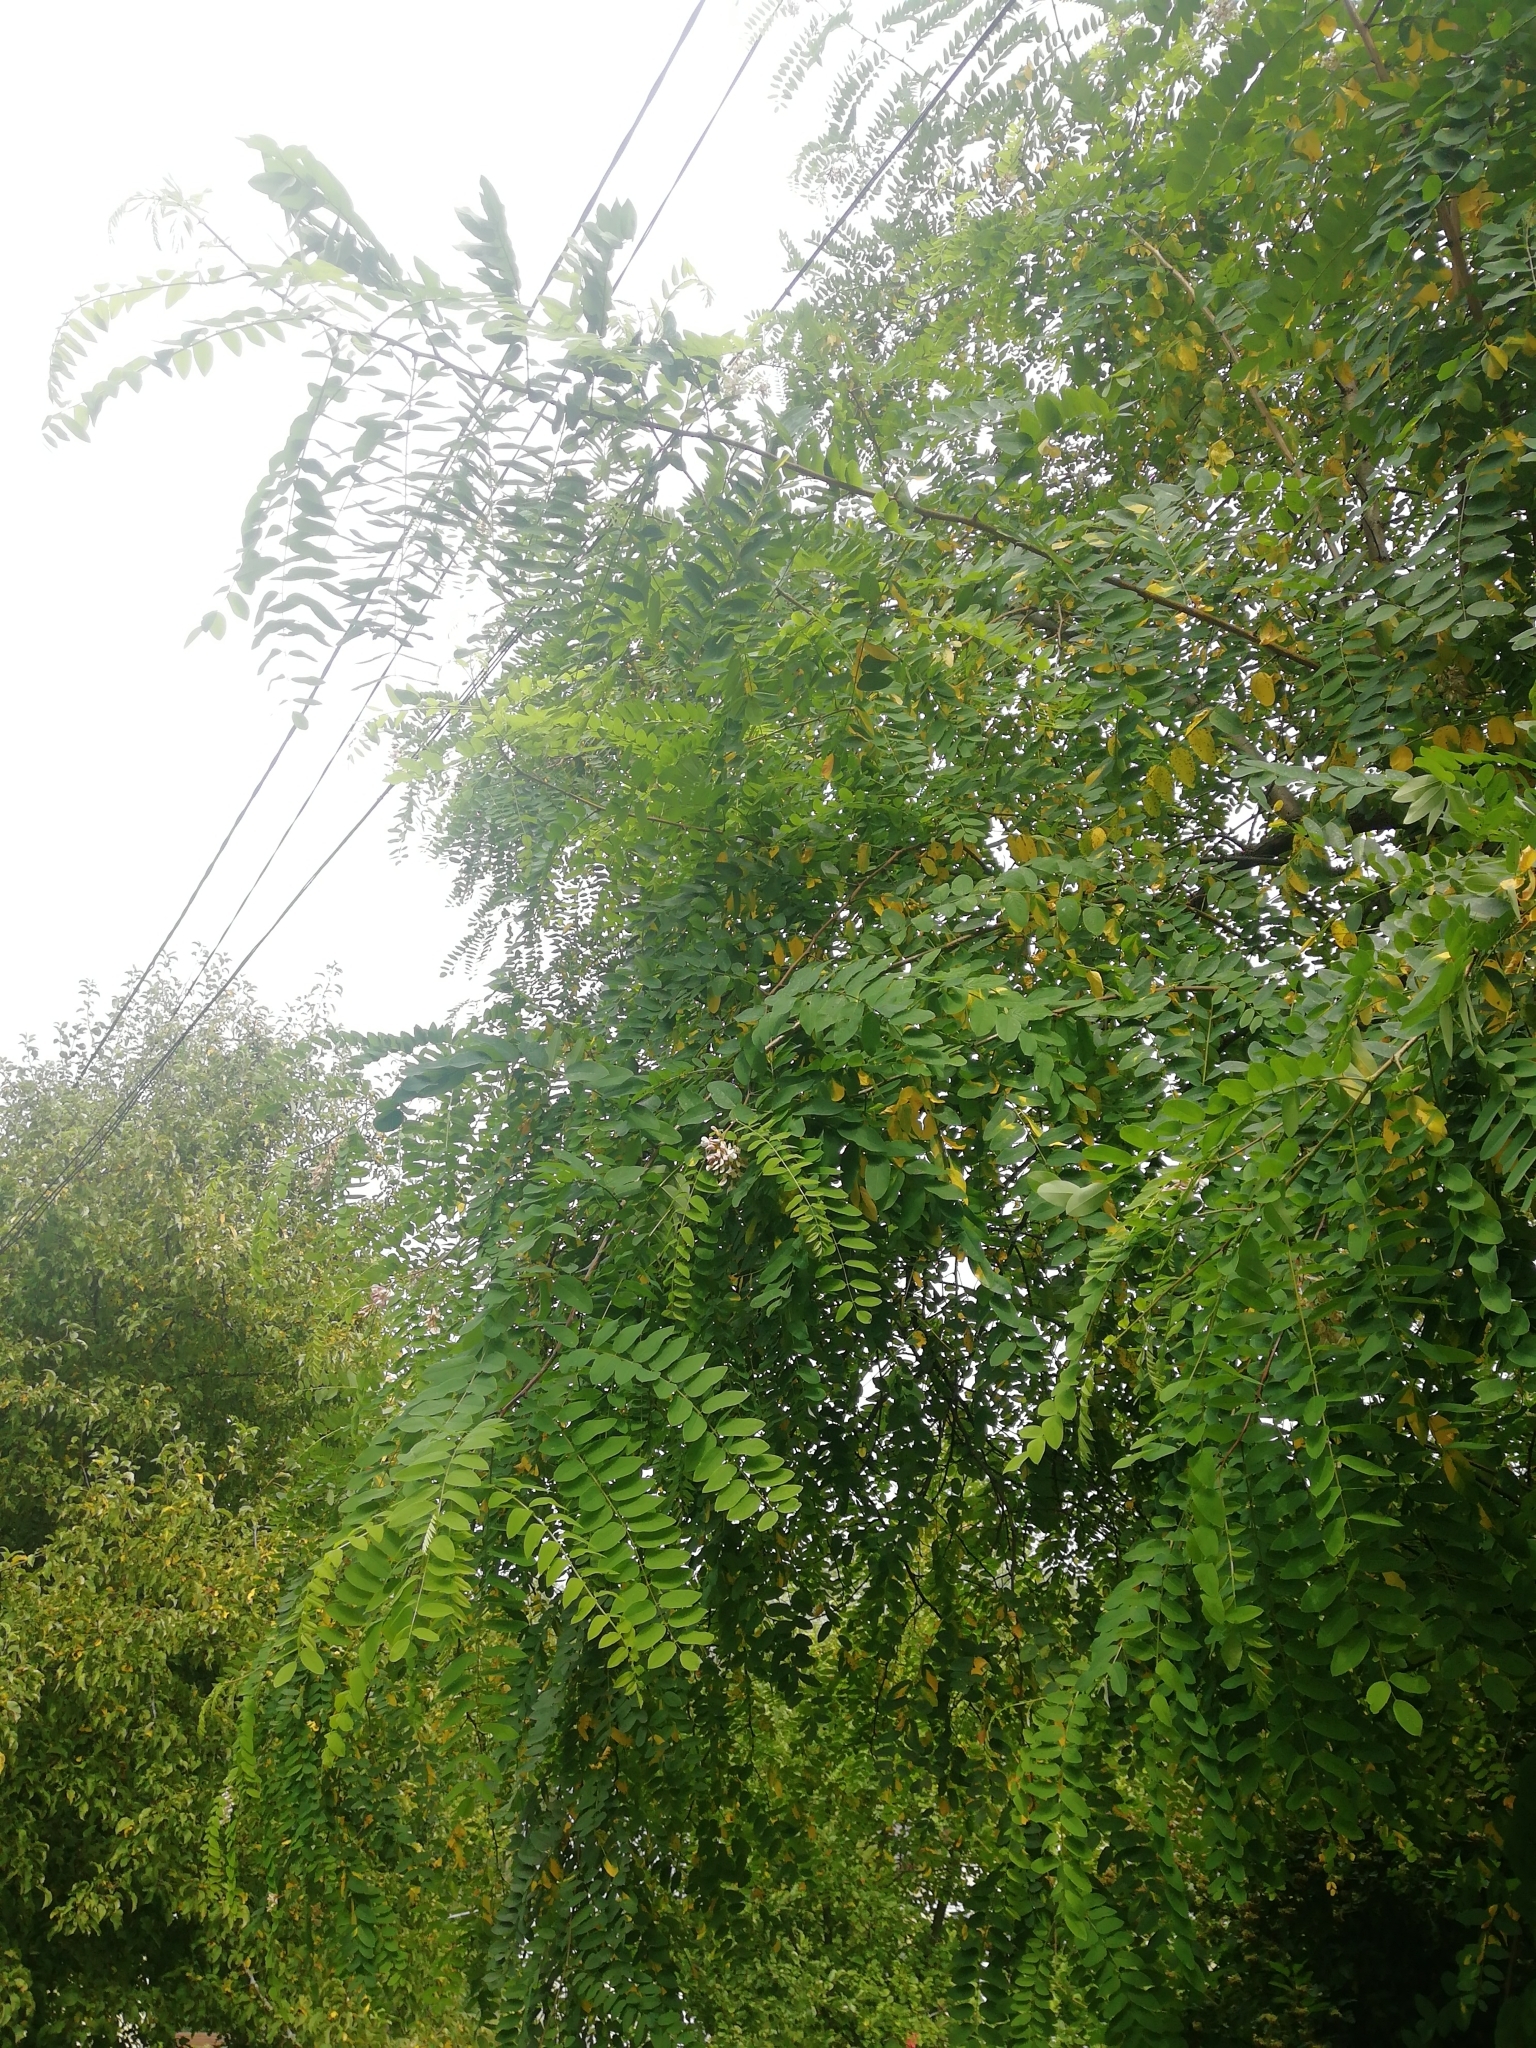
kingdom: Plantae
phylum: Tracheophyta
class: Magnoliopsida
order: Fabales
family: Fabaceae
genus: Robinia
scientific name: Robinia pseudoacacia
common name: Black locust
